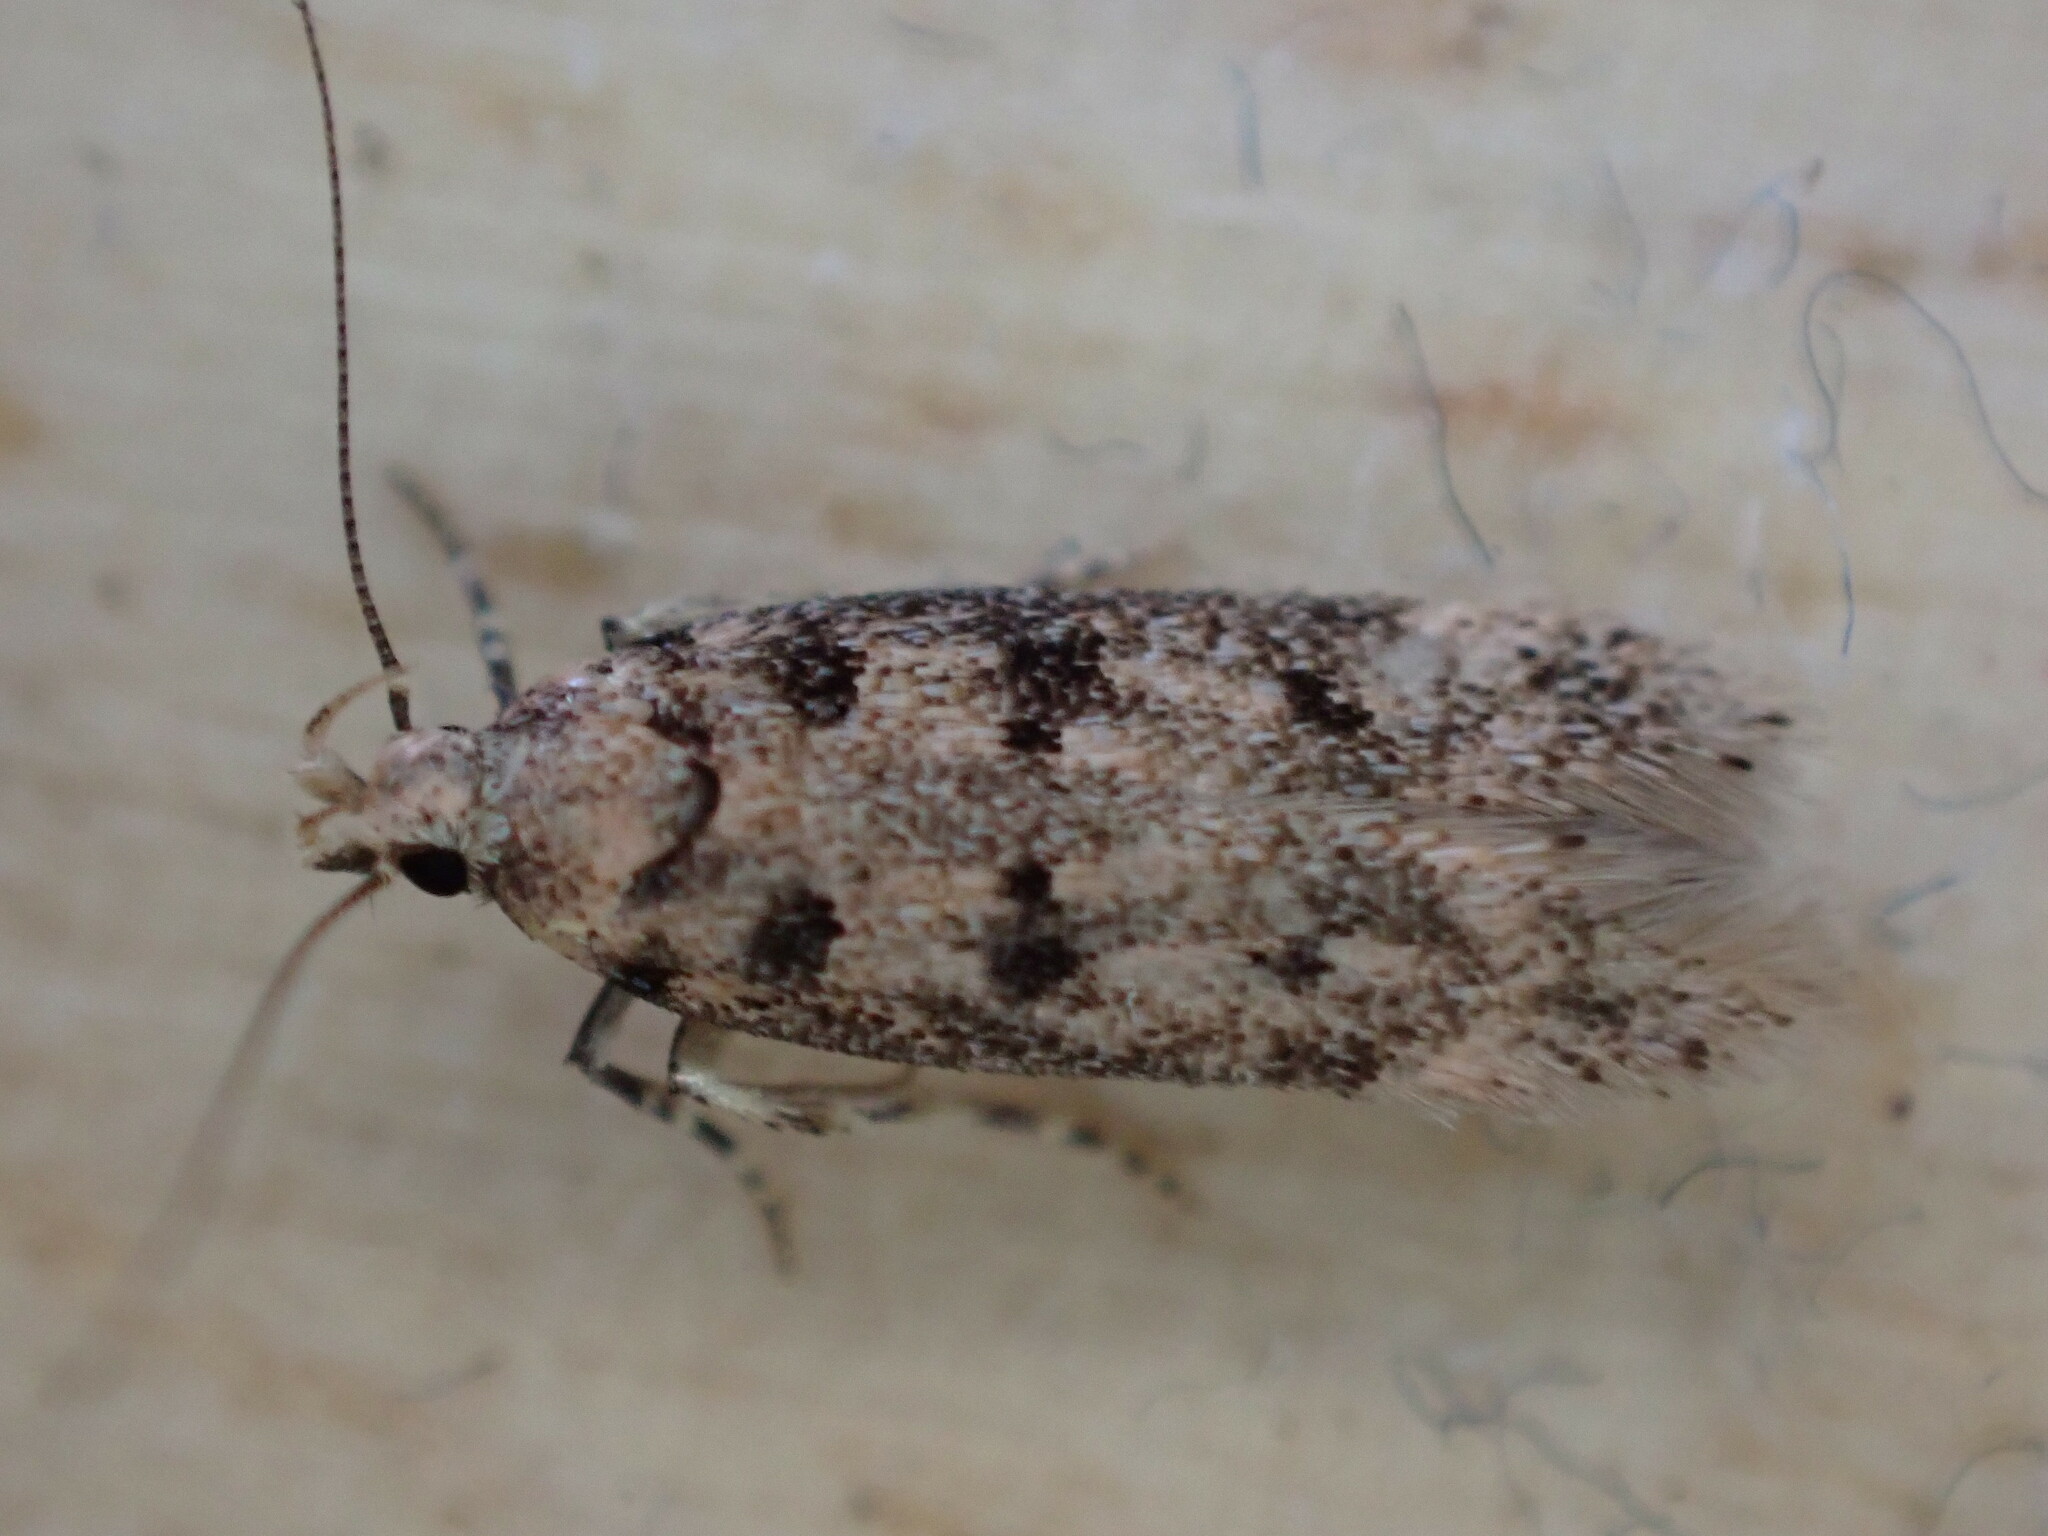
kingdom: Animalia
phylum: Arthropoda
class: Insecta
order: Lepidoptera
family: Gelechiidae
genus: Bryotropha
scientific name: Bryotropha domestica
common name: House groundling
